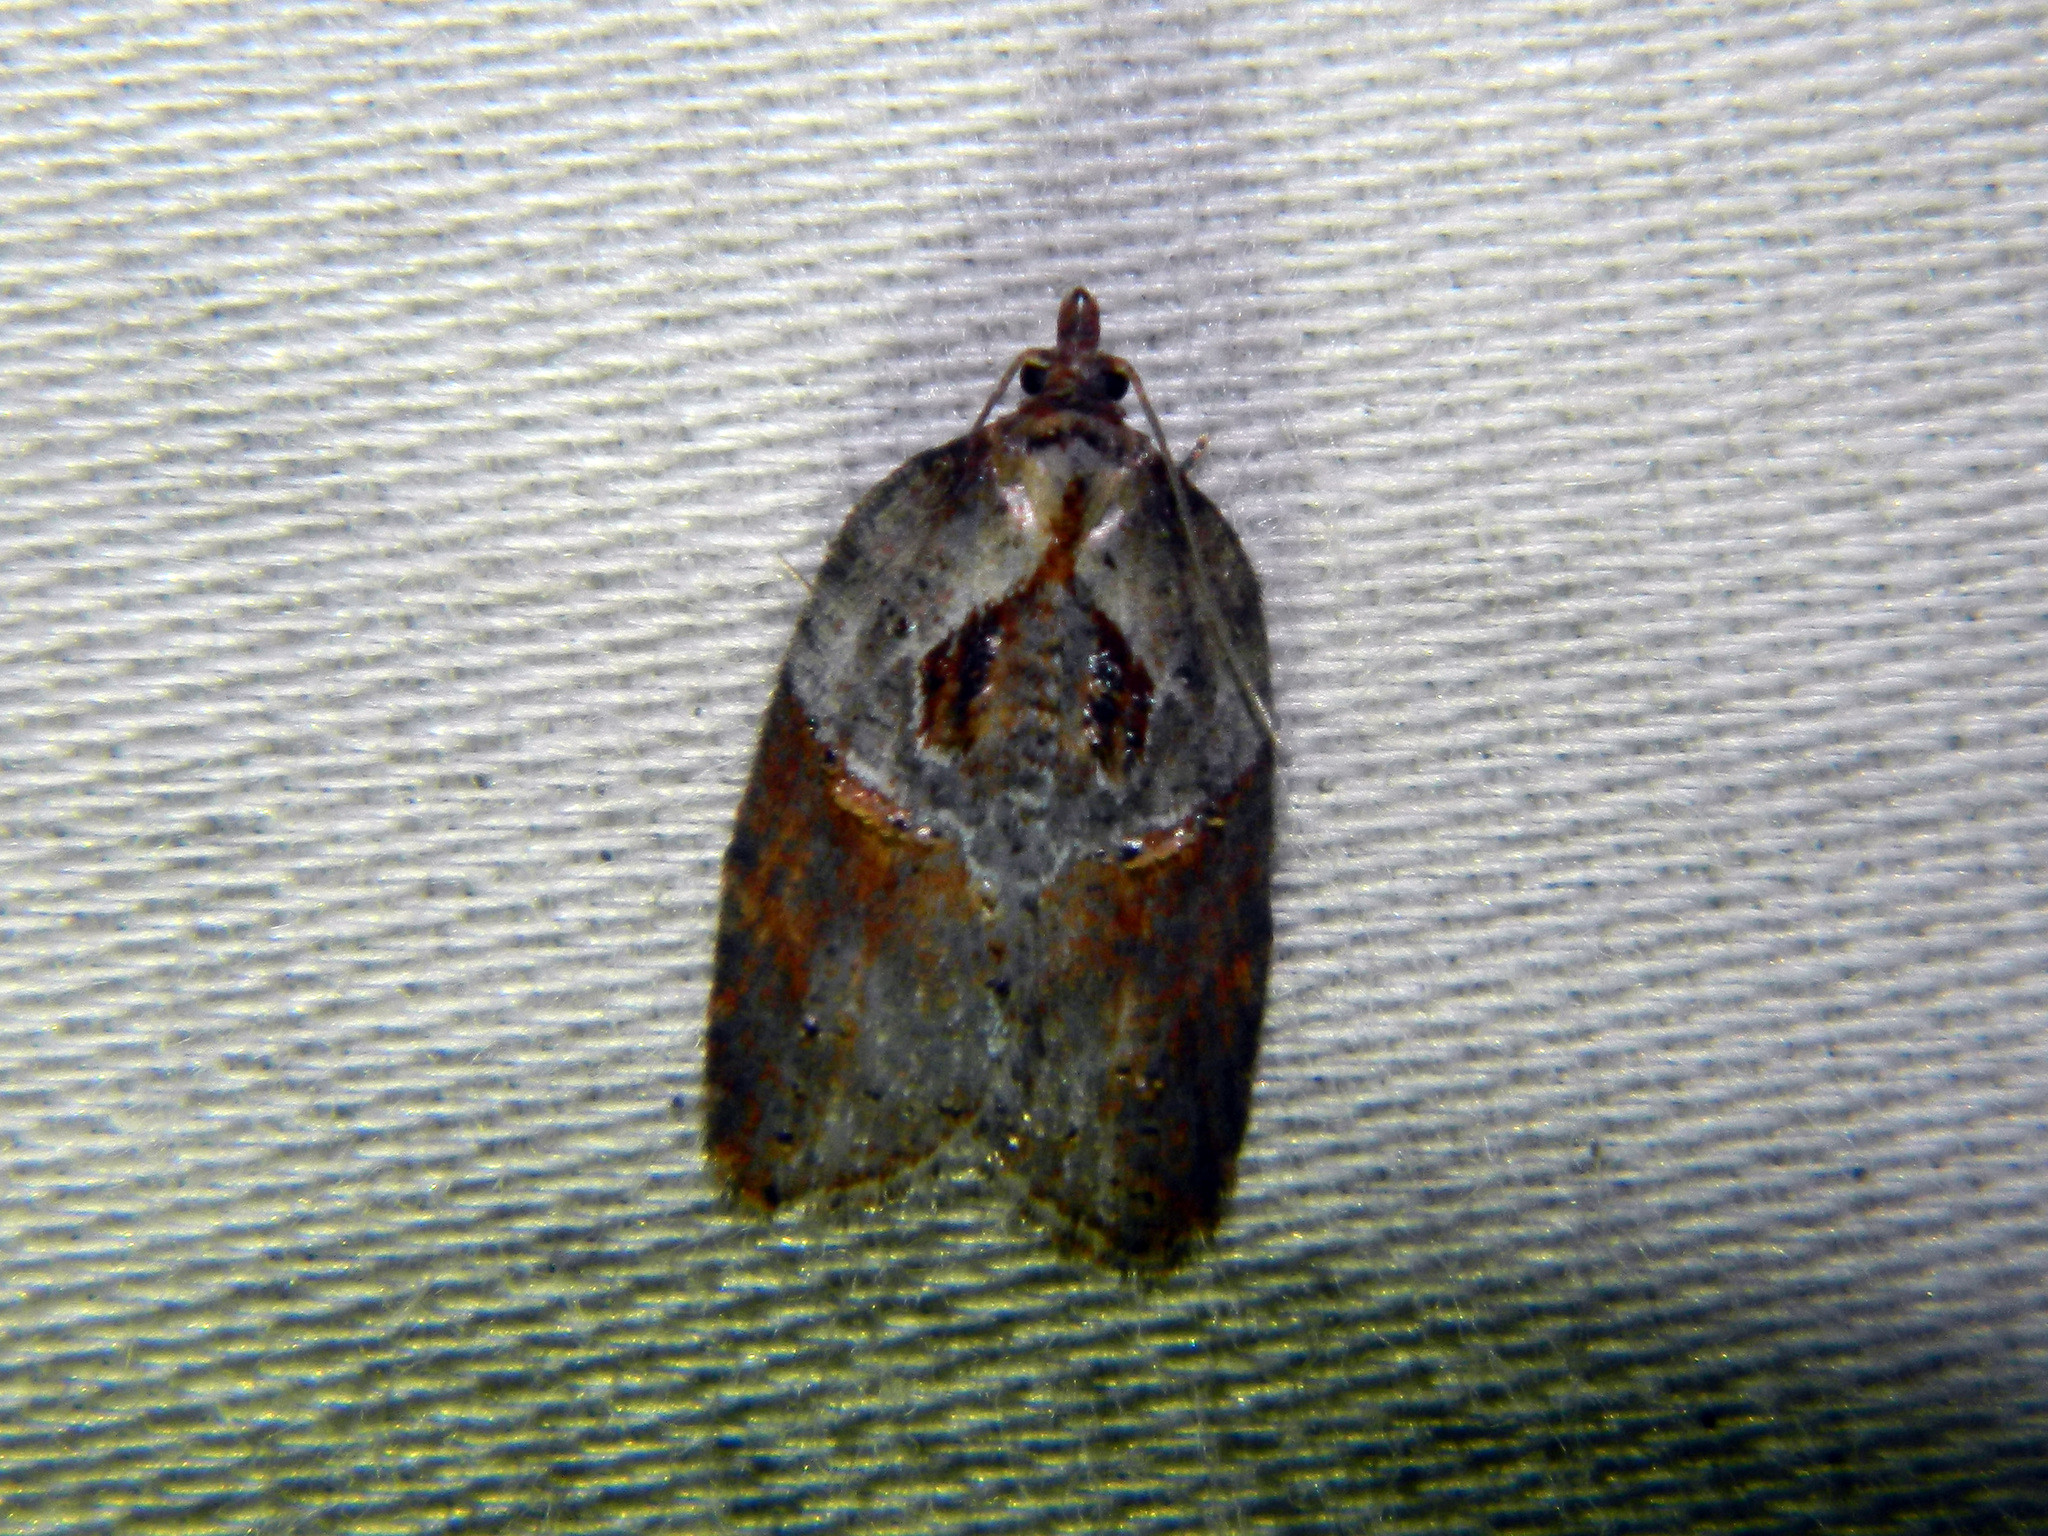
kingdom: Animalia
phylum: Arthropoda
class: Insecta
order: Lepidoptera
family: Tortricidae
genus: Acleris
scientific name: Acleris inana
